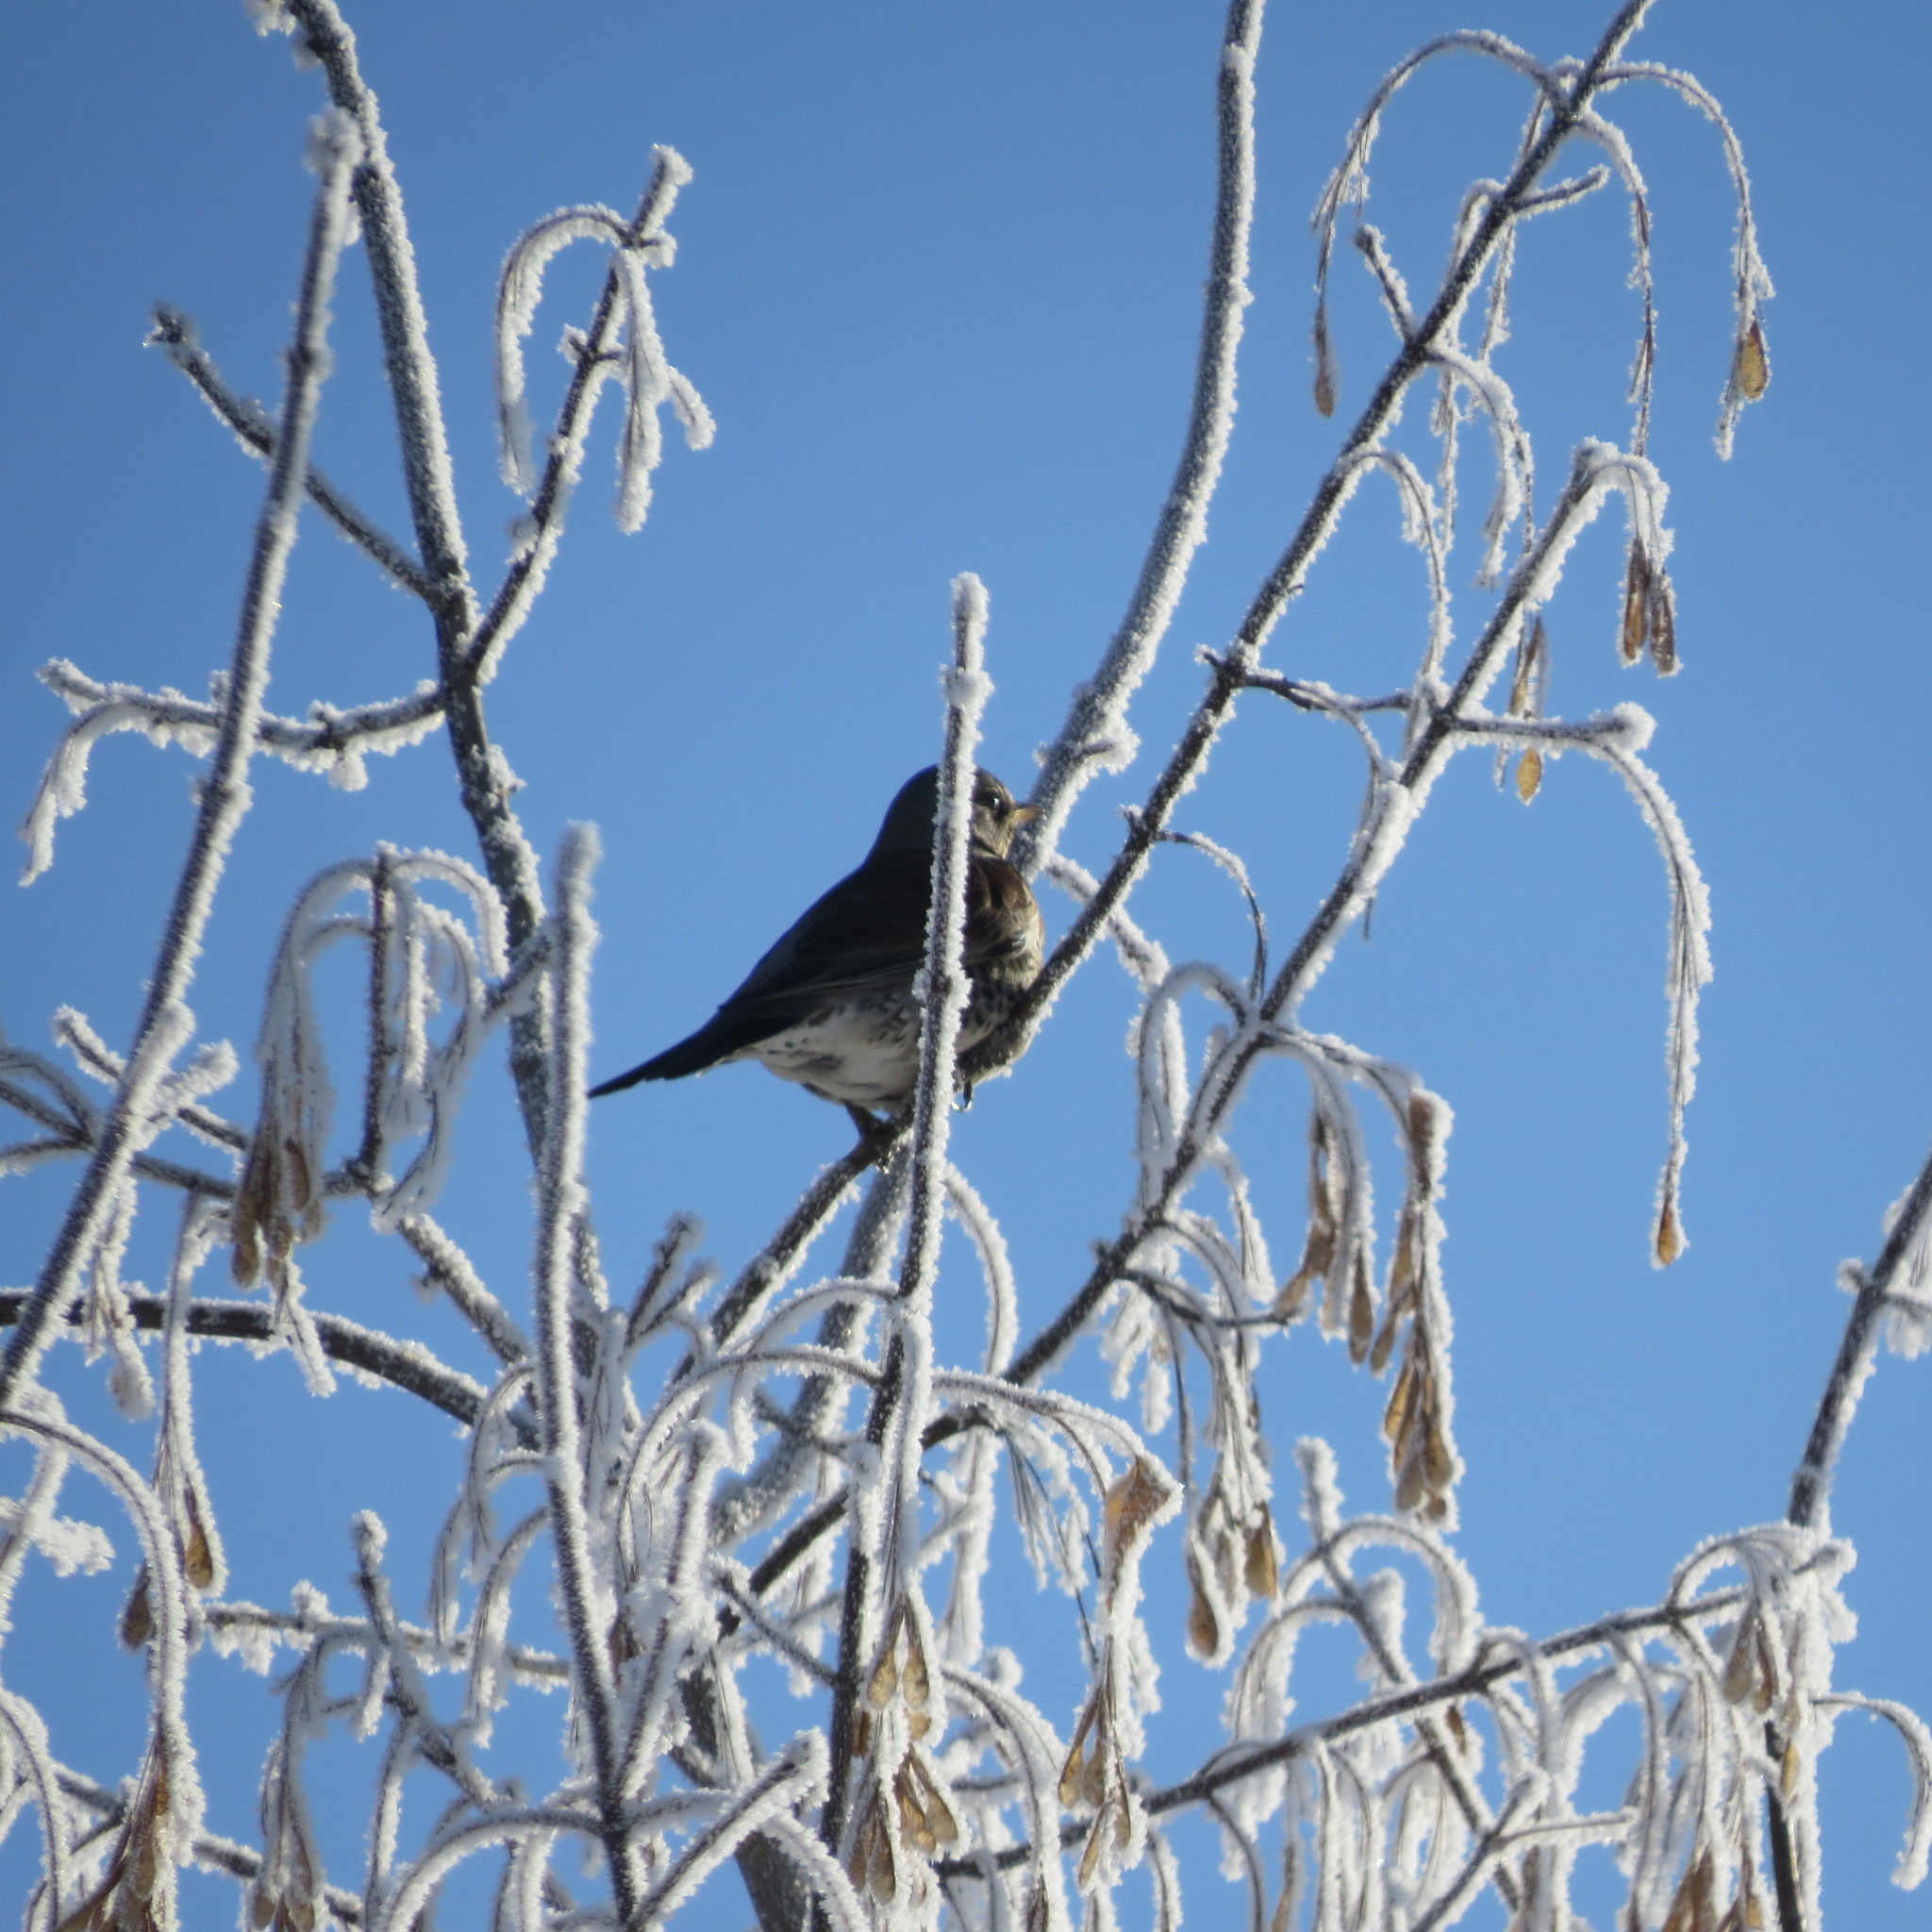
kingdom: Animalia
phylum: Chordata
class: Aves
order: Passeriformes
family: Turdidae
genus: Turdus
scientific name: Turdus pilaris
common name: Fieldfare
